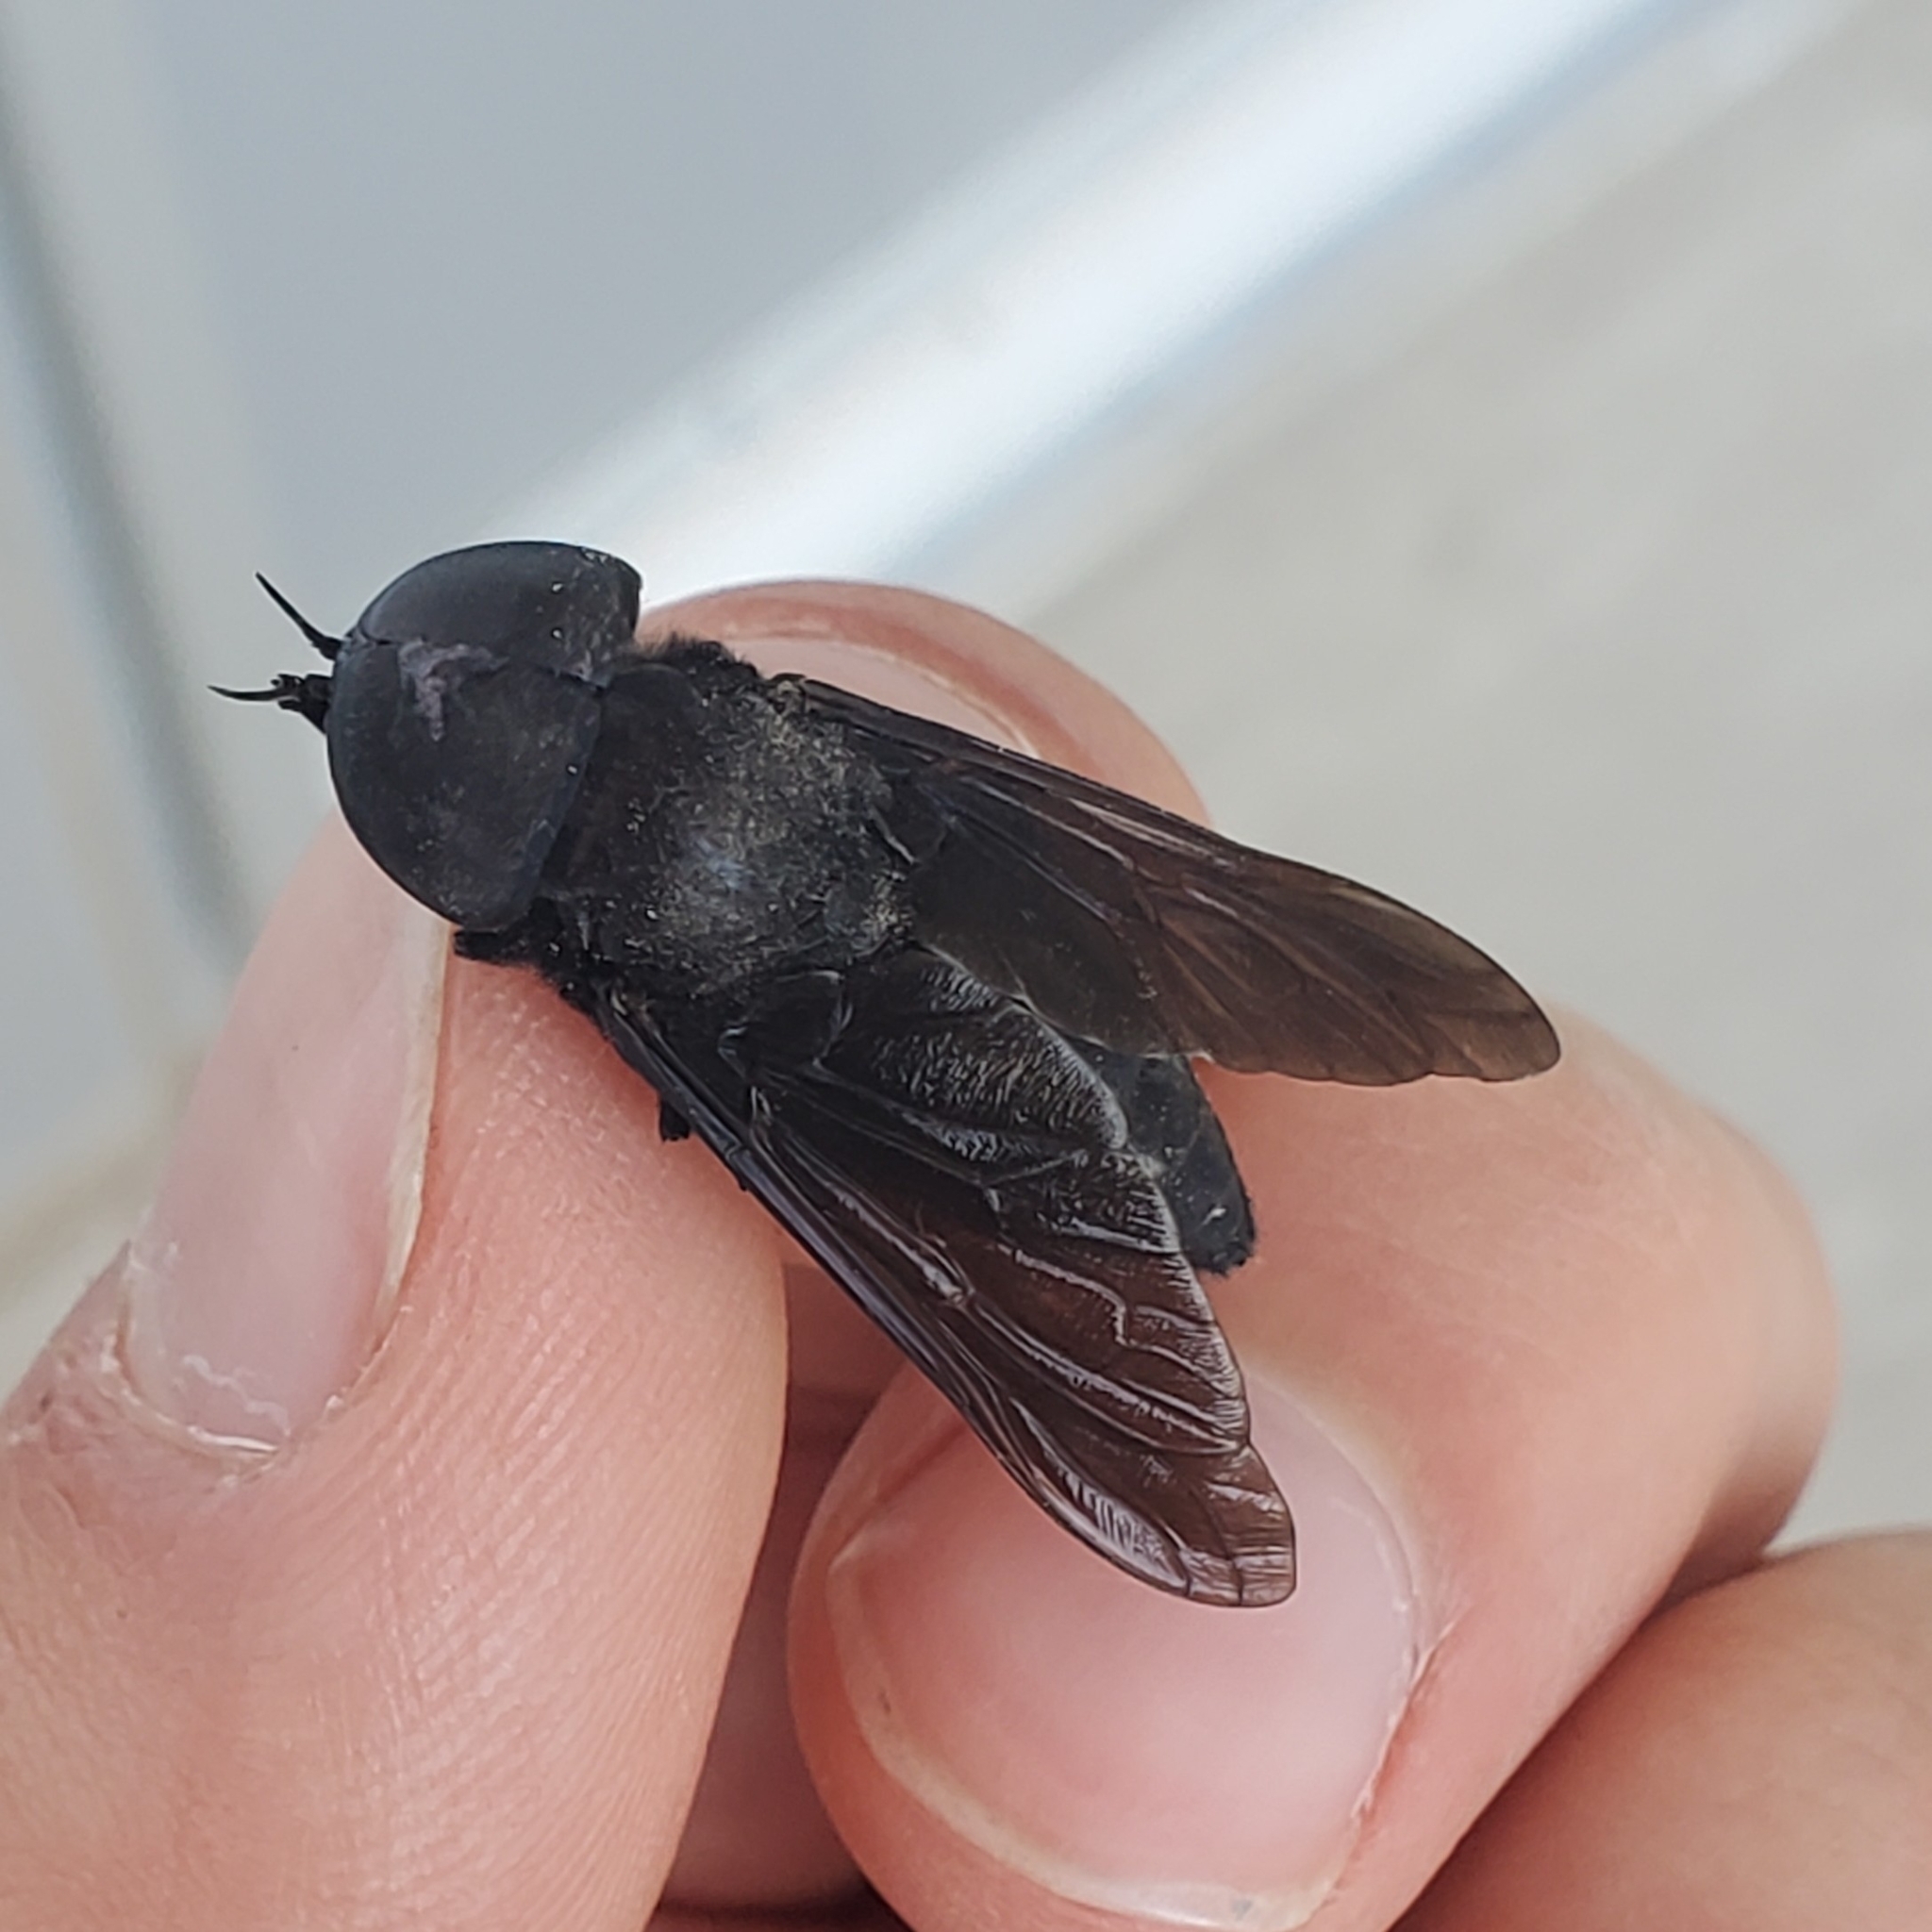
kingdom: Animalia
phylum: Arthropoda
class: Insecta
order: Diptera
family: Tabanidae
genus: Tabanus
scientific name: Tabanus atratus
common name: Black horse fly
